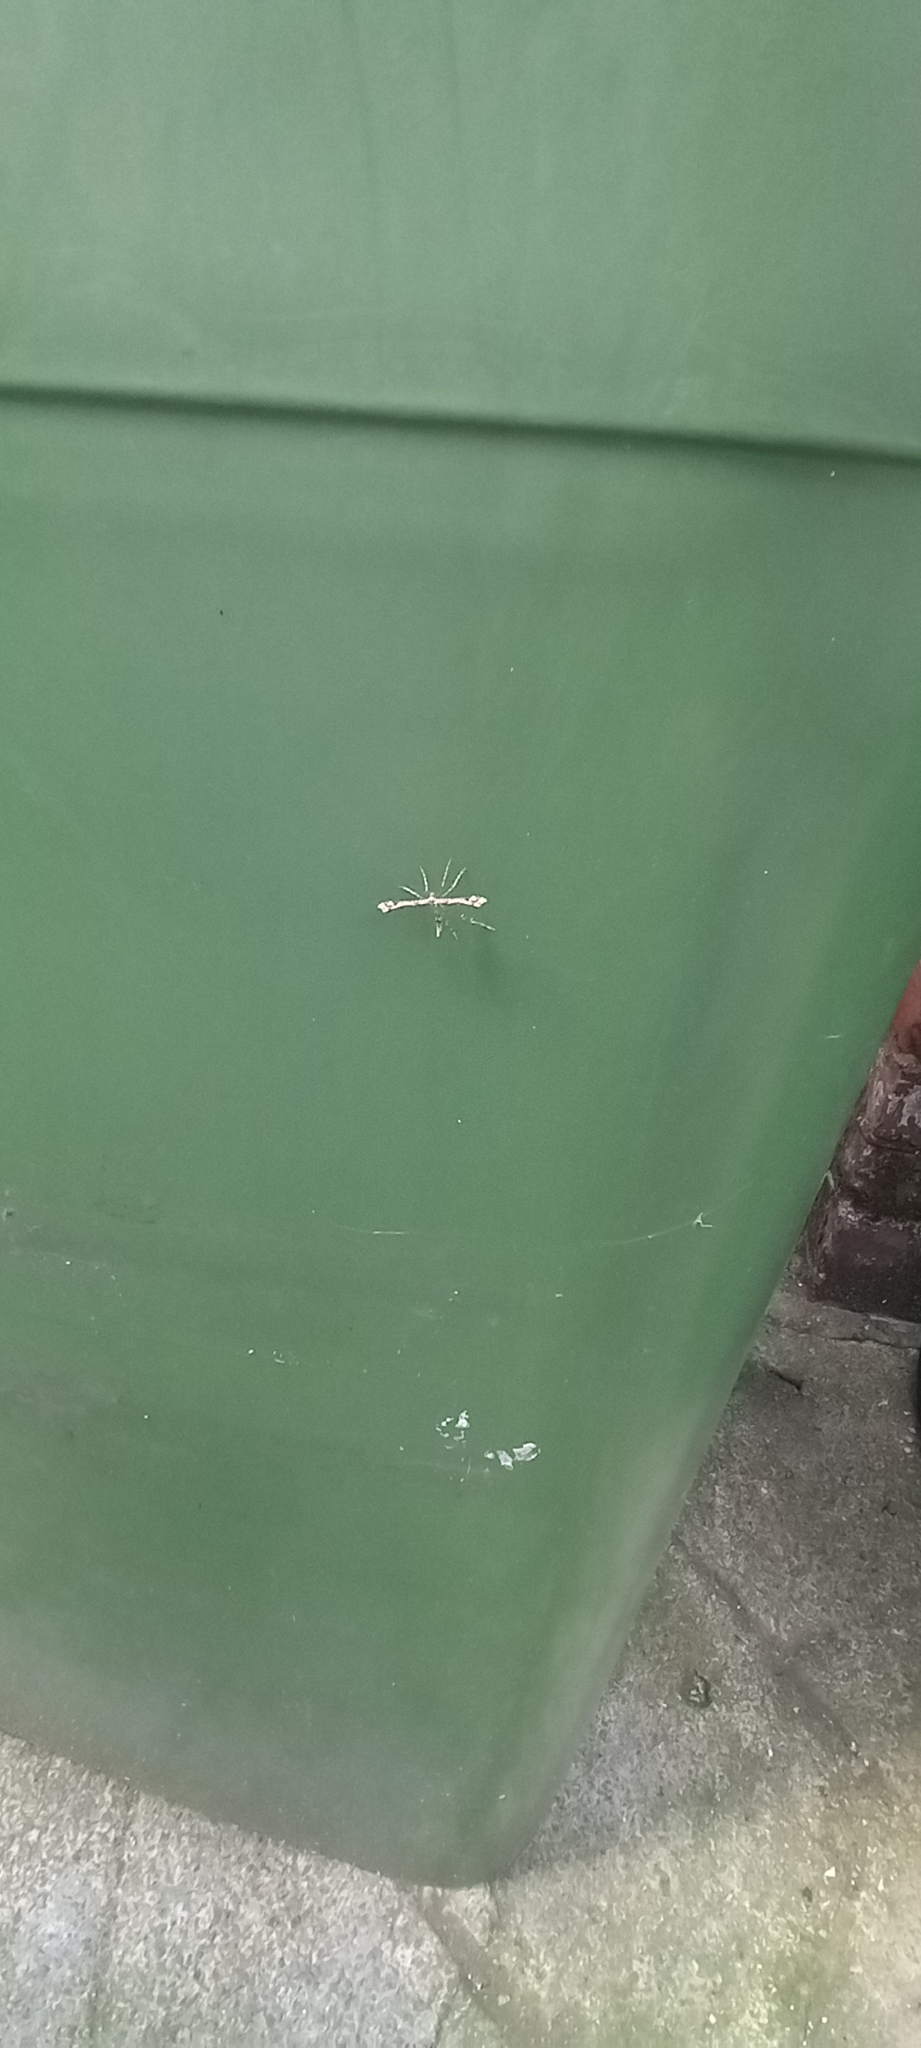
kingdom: Animalia
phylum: Arthropoda
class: Insecta
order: Lepidoptera
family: Pterophoridae
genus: Amblyptilia
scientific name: Amblyptilia acanthadactyla
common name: Beautiful plume
